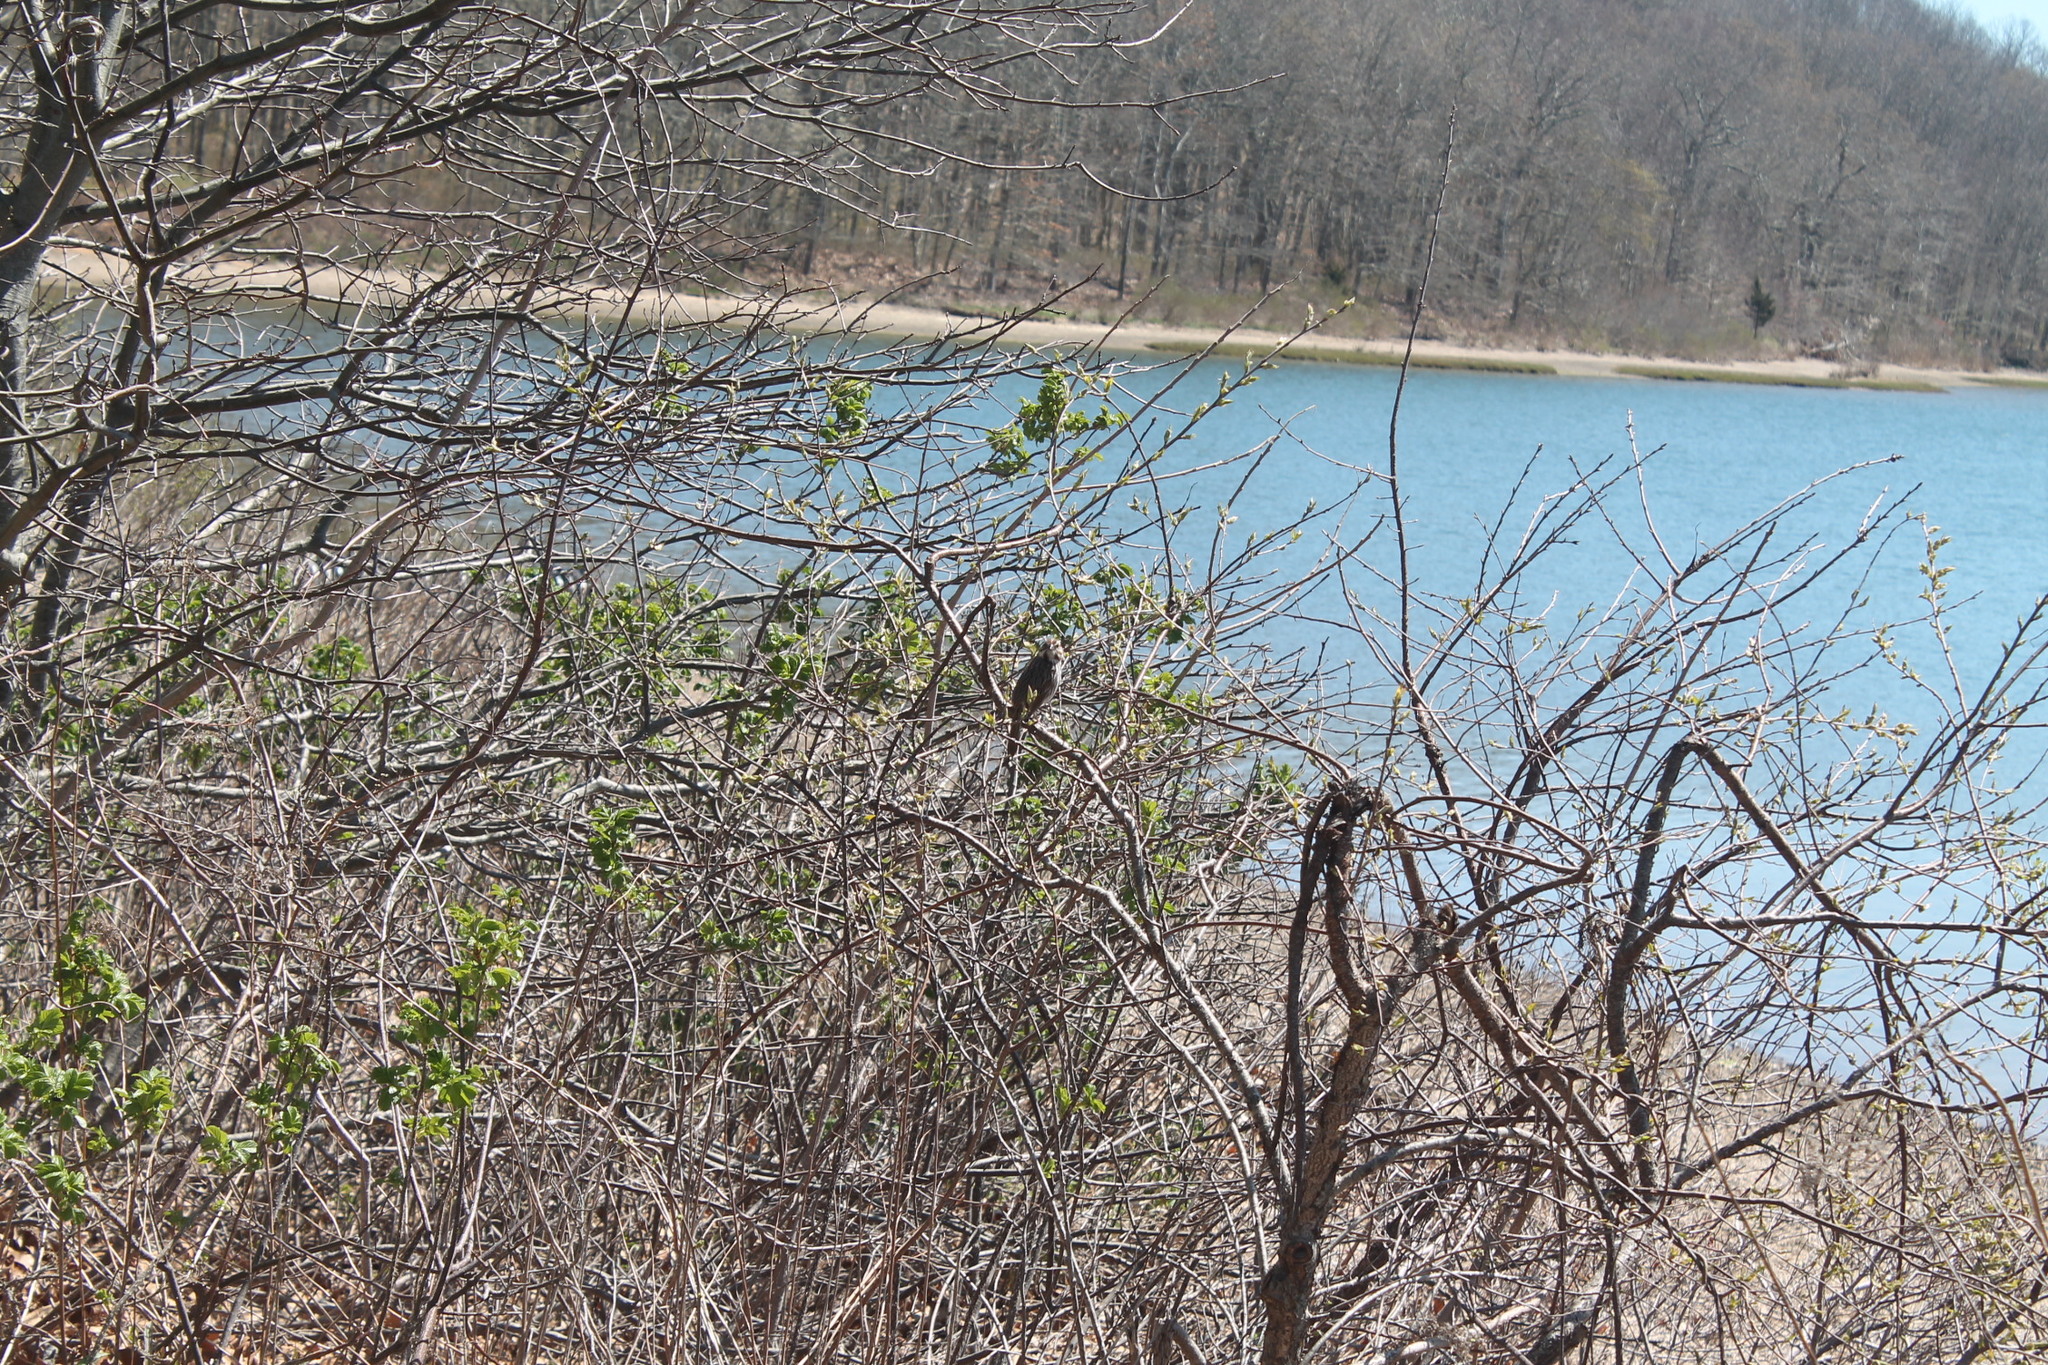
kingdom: Animalia
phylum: Chordata
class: Aves
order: Passeriformes
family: Passerellidae
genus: Melospiza
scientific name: Melospiza melodia
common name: Song sparrow
